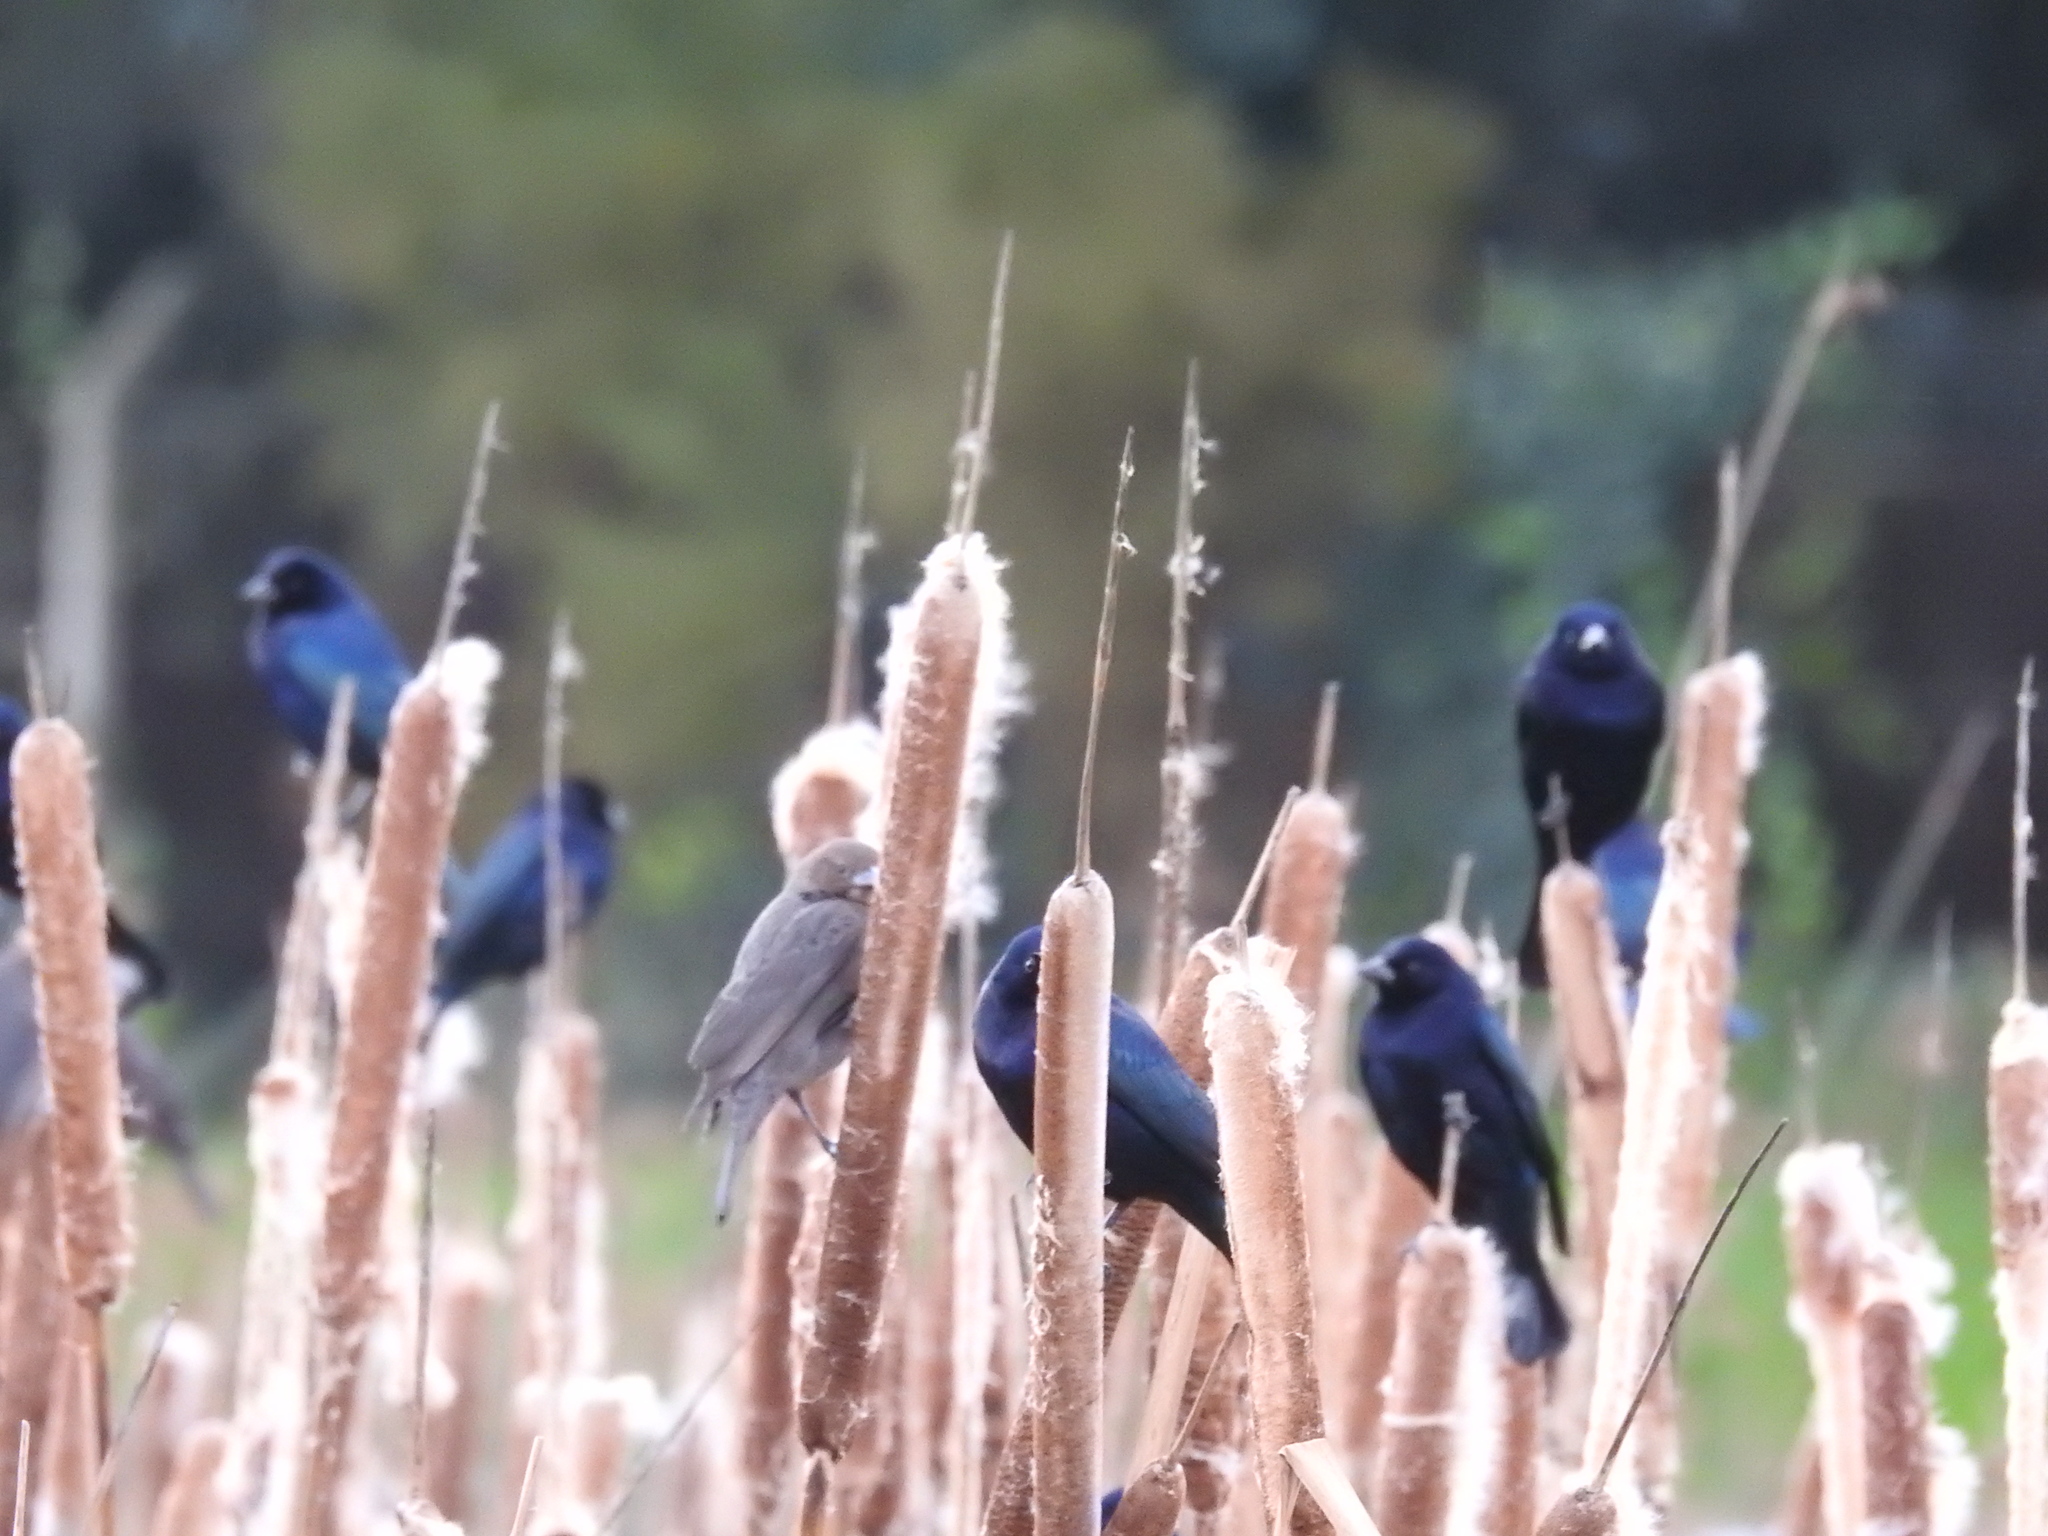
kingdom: Animalia
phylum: Chordata
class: Aves
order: Passeriformes
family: Icteridae
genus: Molothrus
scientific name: Molothrus bonariensis
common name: Shiny cowbird
